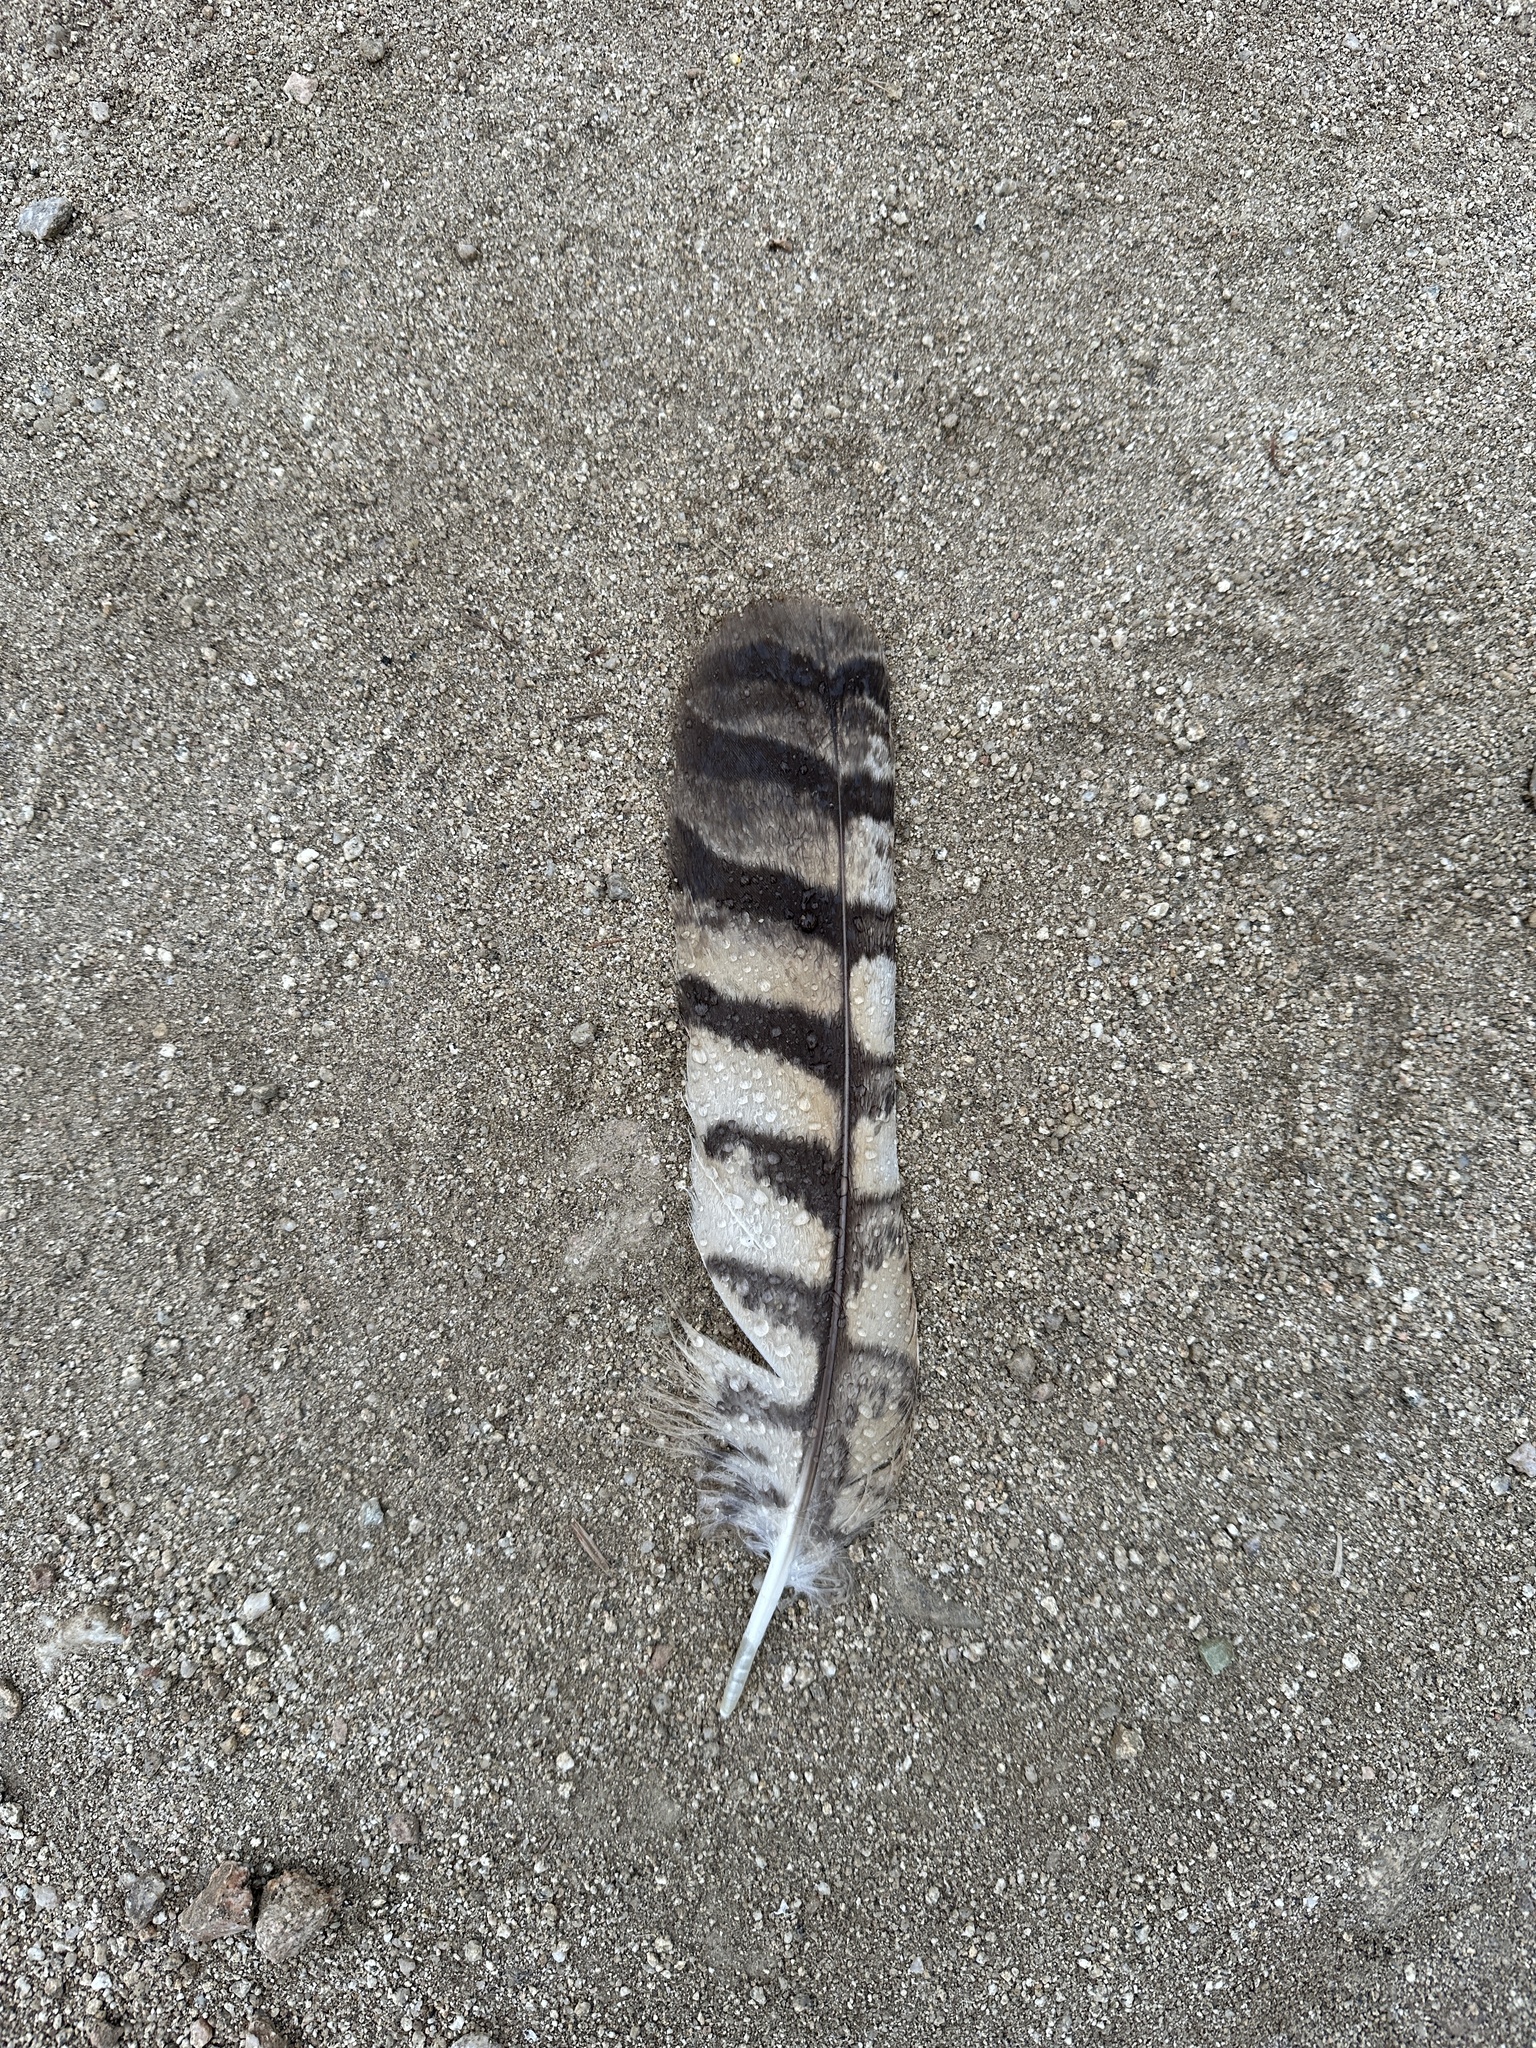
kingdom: Animalia
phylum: Chordata
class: Aves
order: Strigiformes
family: Strigidae
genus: Bubo
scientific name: Bubo virginianus
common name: Great horned owl
